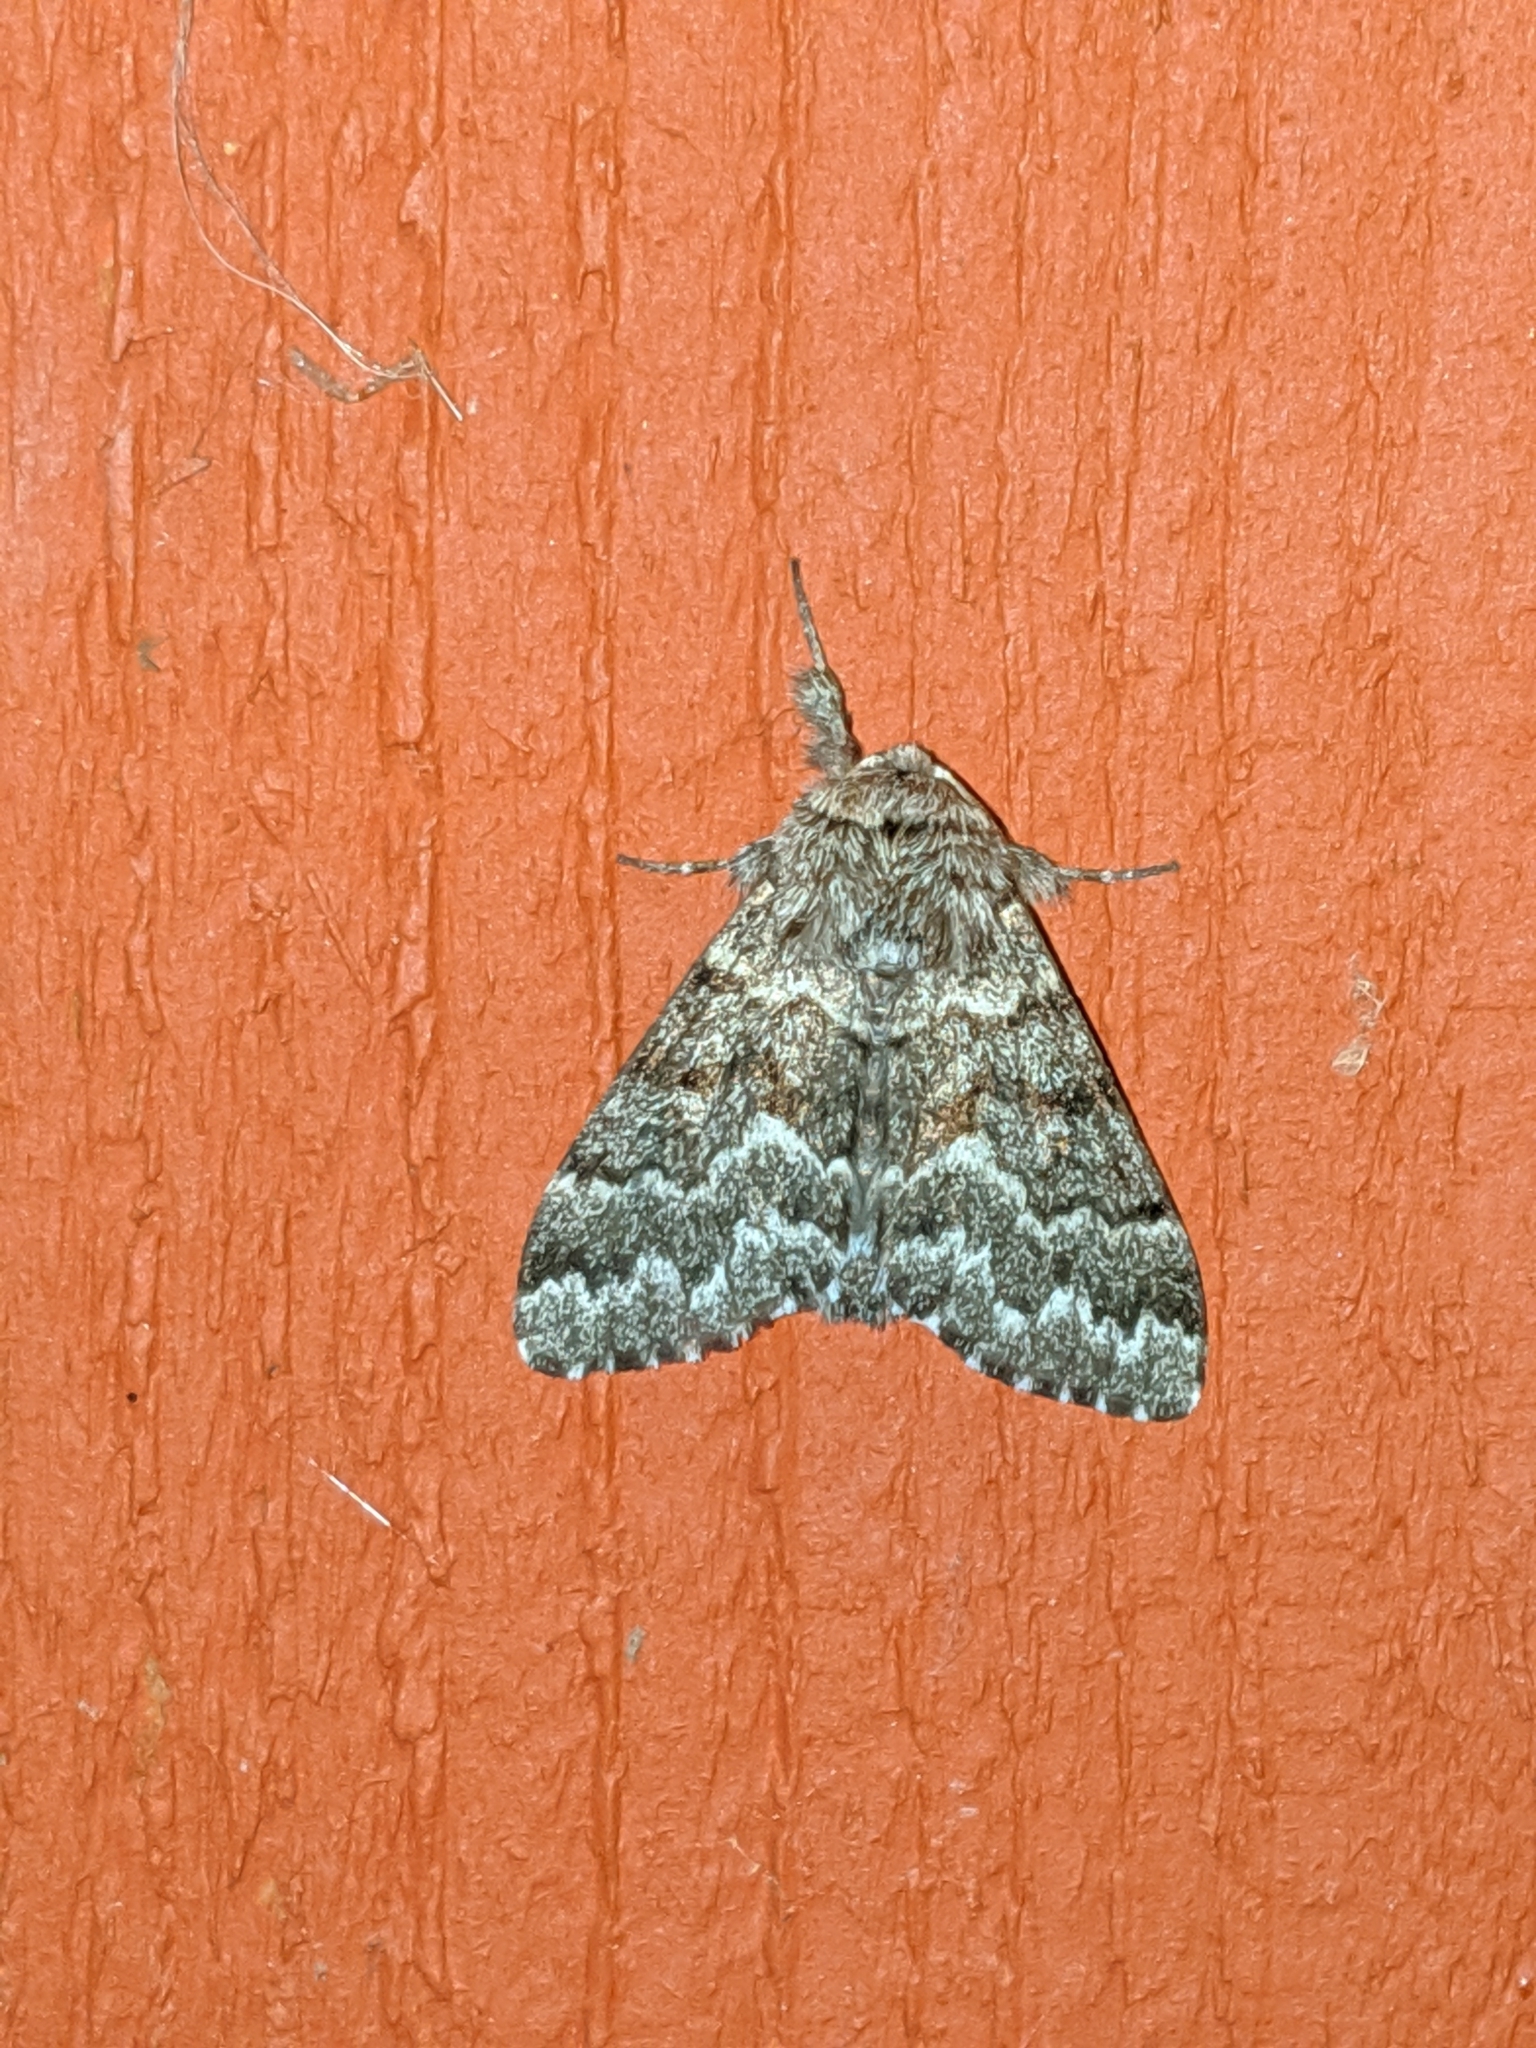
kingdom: Animalia
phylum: Arthropoda
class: Insecta
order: Lepidoptera
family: Noctuidae
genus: Panthea
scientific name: Panthea virginarius
